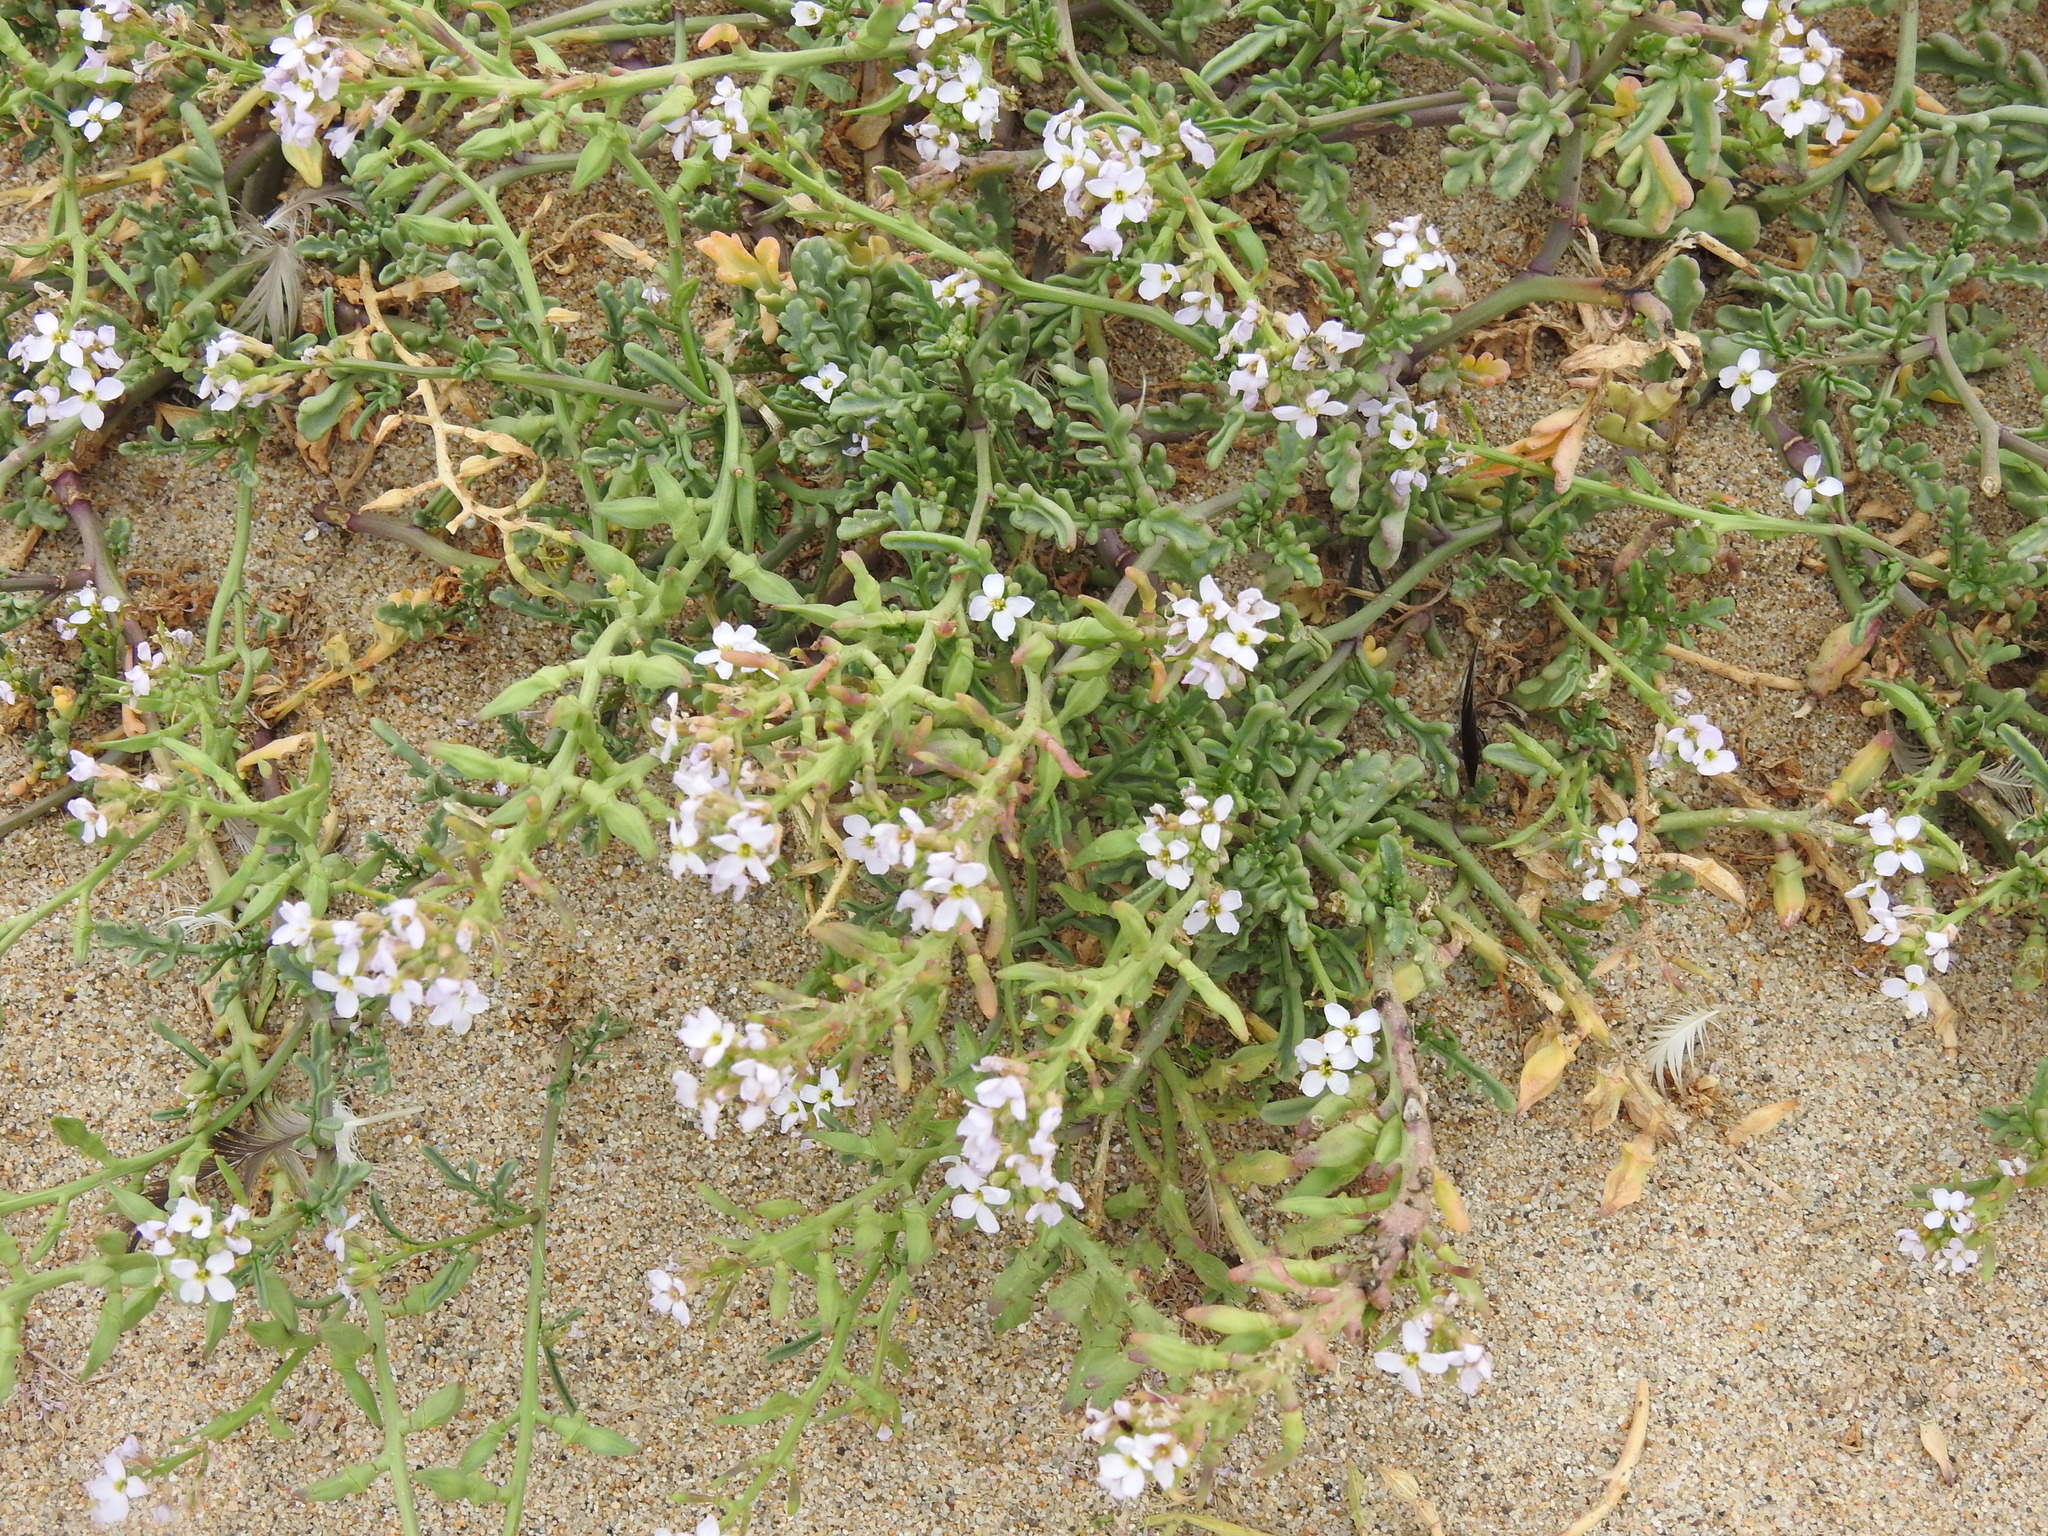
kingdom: Plantae
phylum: Tracheophyta
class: Magnoliopsida
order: Brassicales
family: Brassicaceae
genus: Cakile
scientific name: Cakile maritima
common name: Sea rocket
